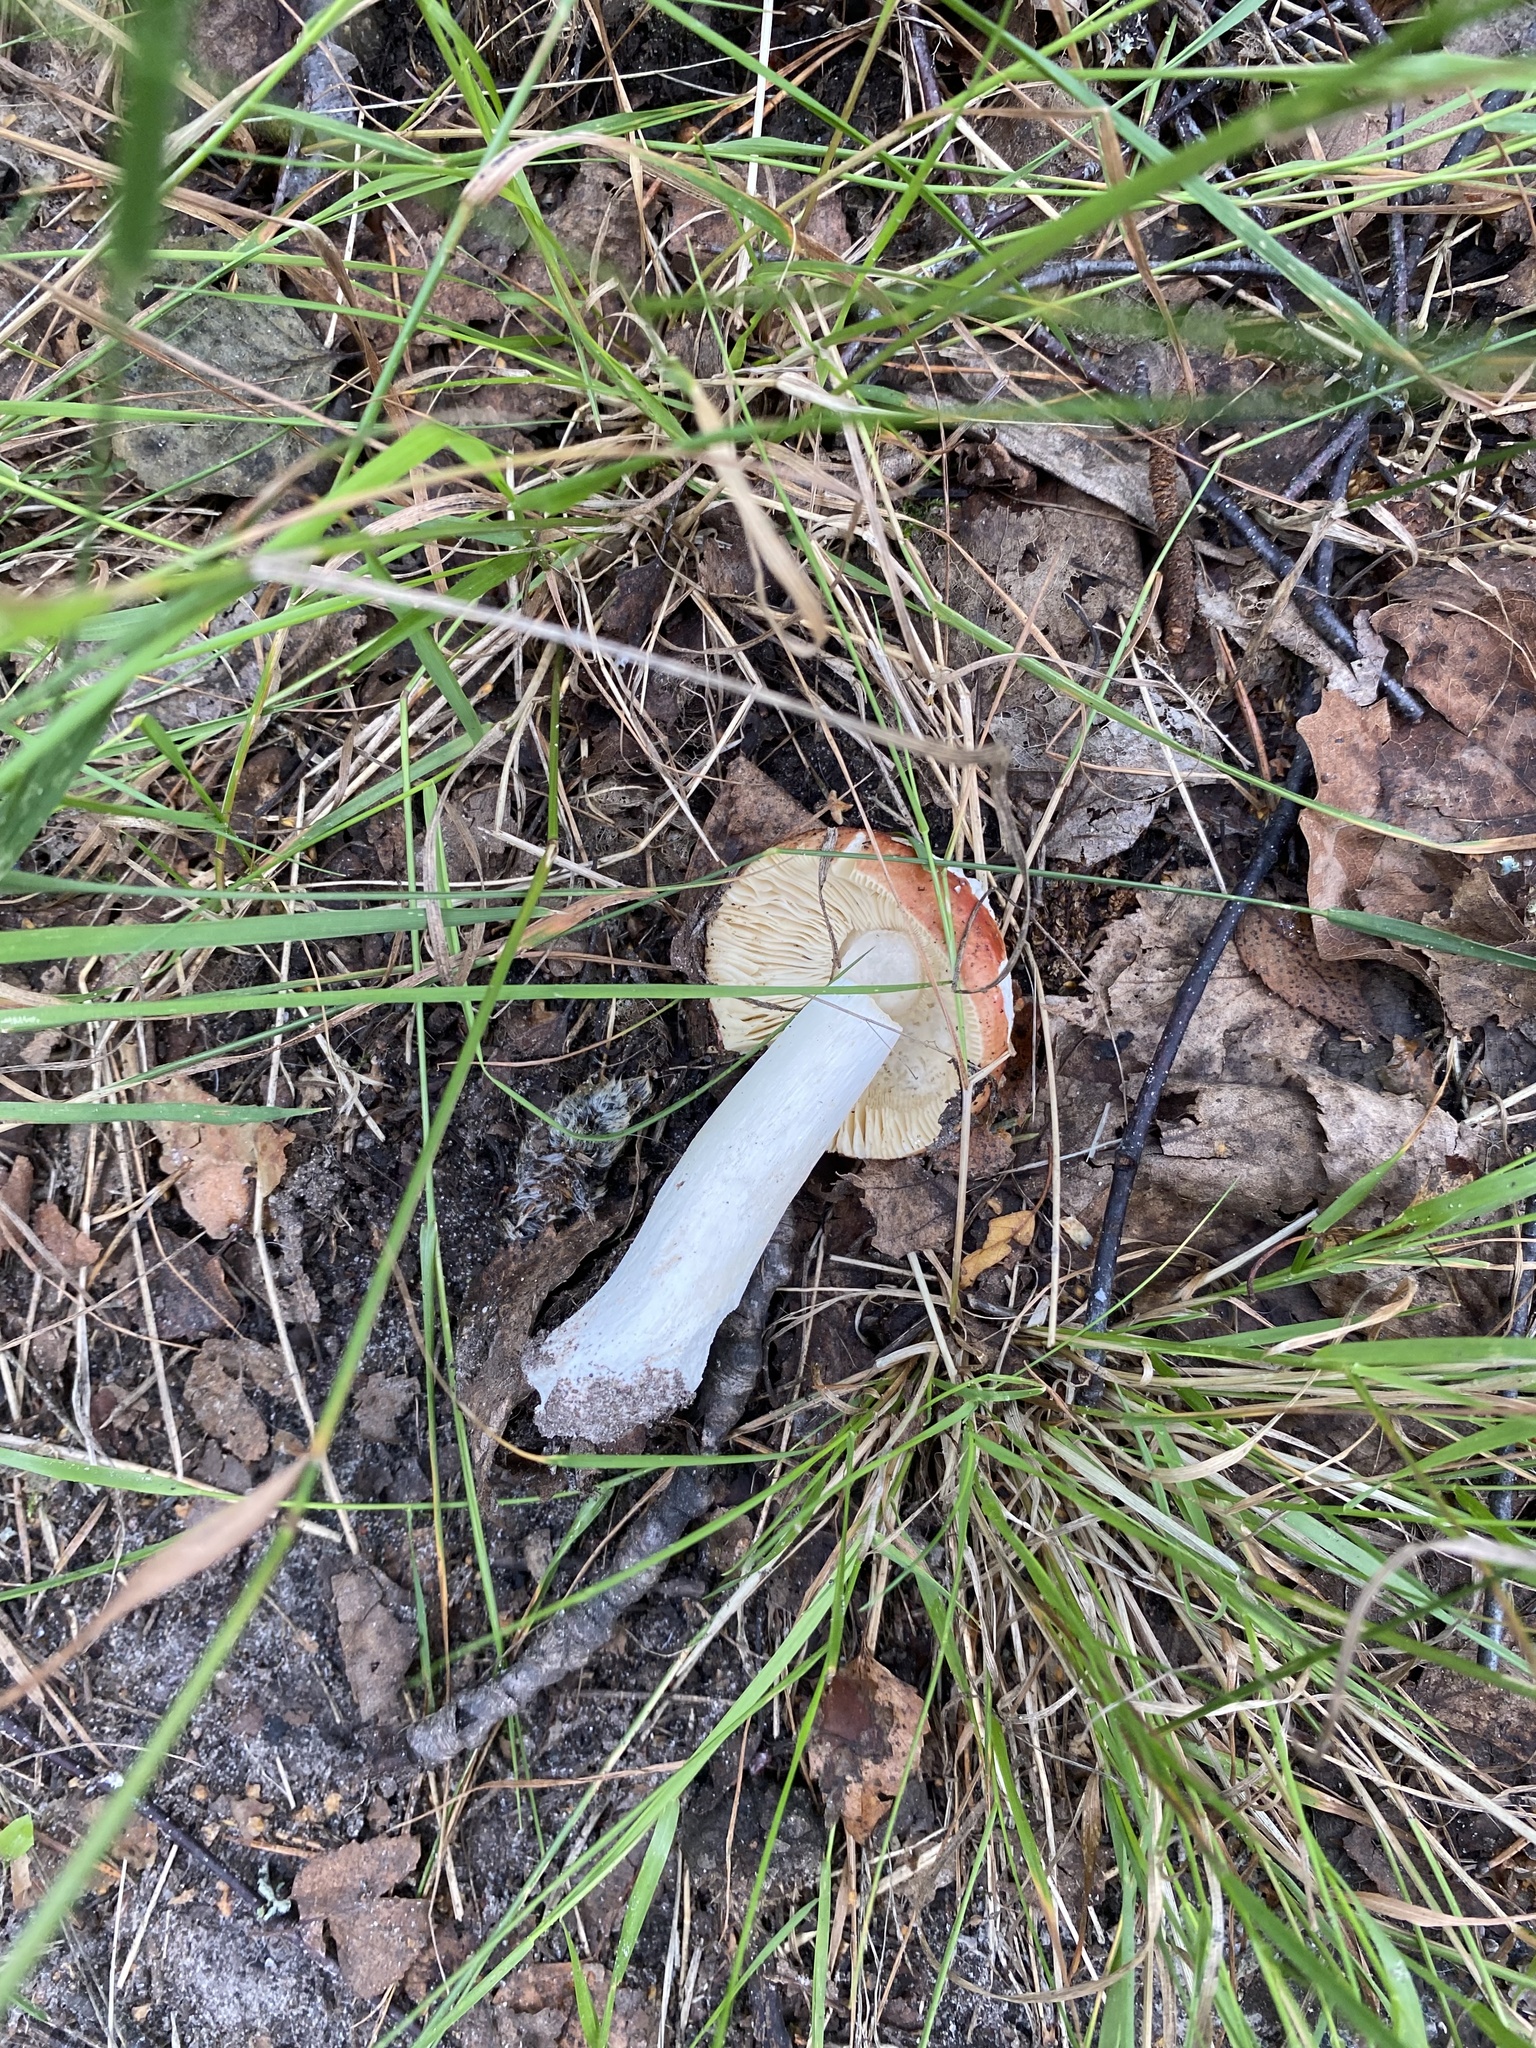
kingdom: Fungi
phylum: Basidiomycota
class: Agaricomycetes
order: Russulales
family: Russulaceae
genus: Russula
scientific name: Russula
